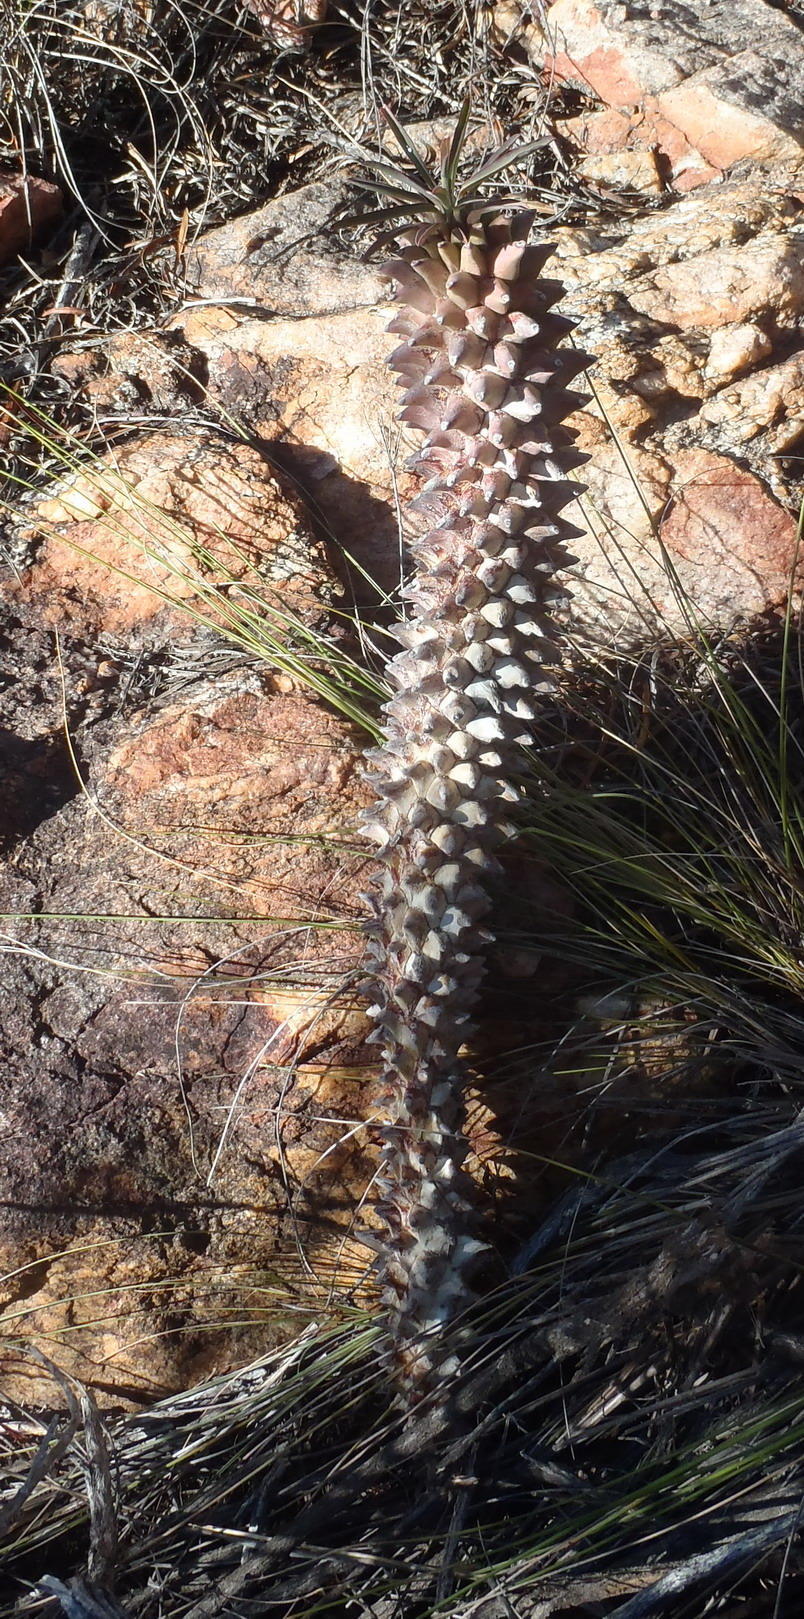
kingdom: Plantae
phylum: Tracheophyta
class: Magnoliopsida
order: Malpighiales
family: Euphorbiaceae
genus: Euphorbia
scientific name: Euphorbia clandestina
